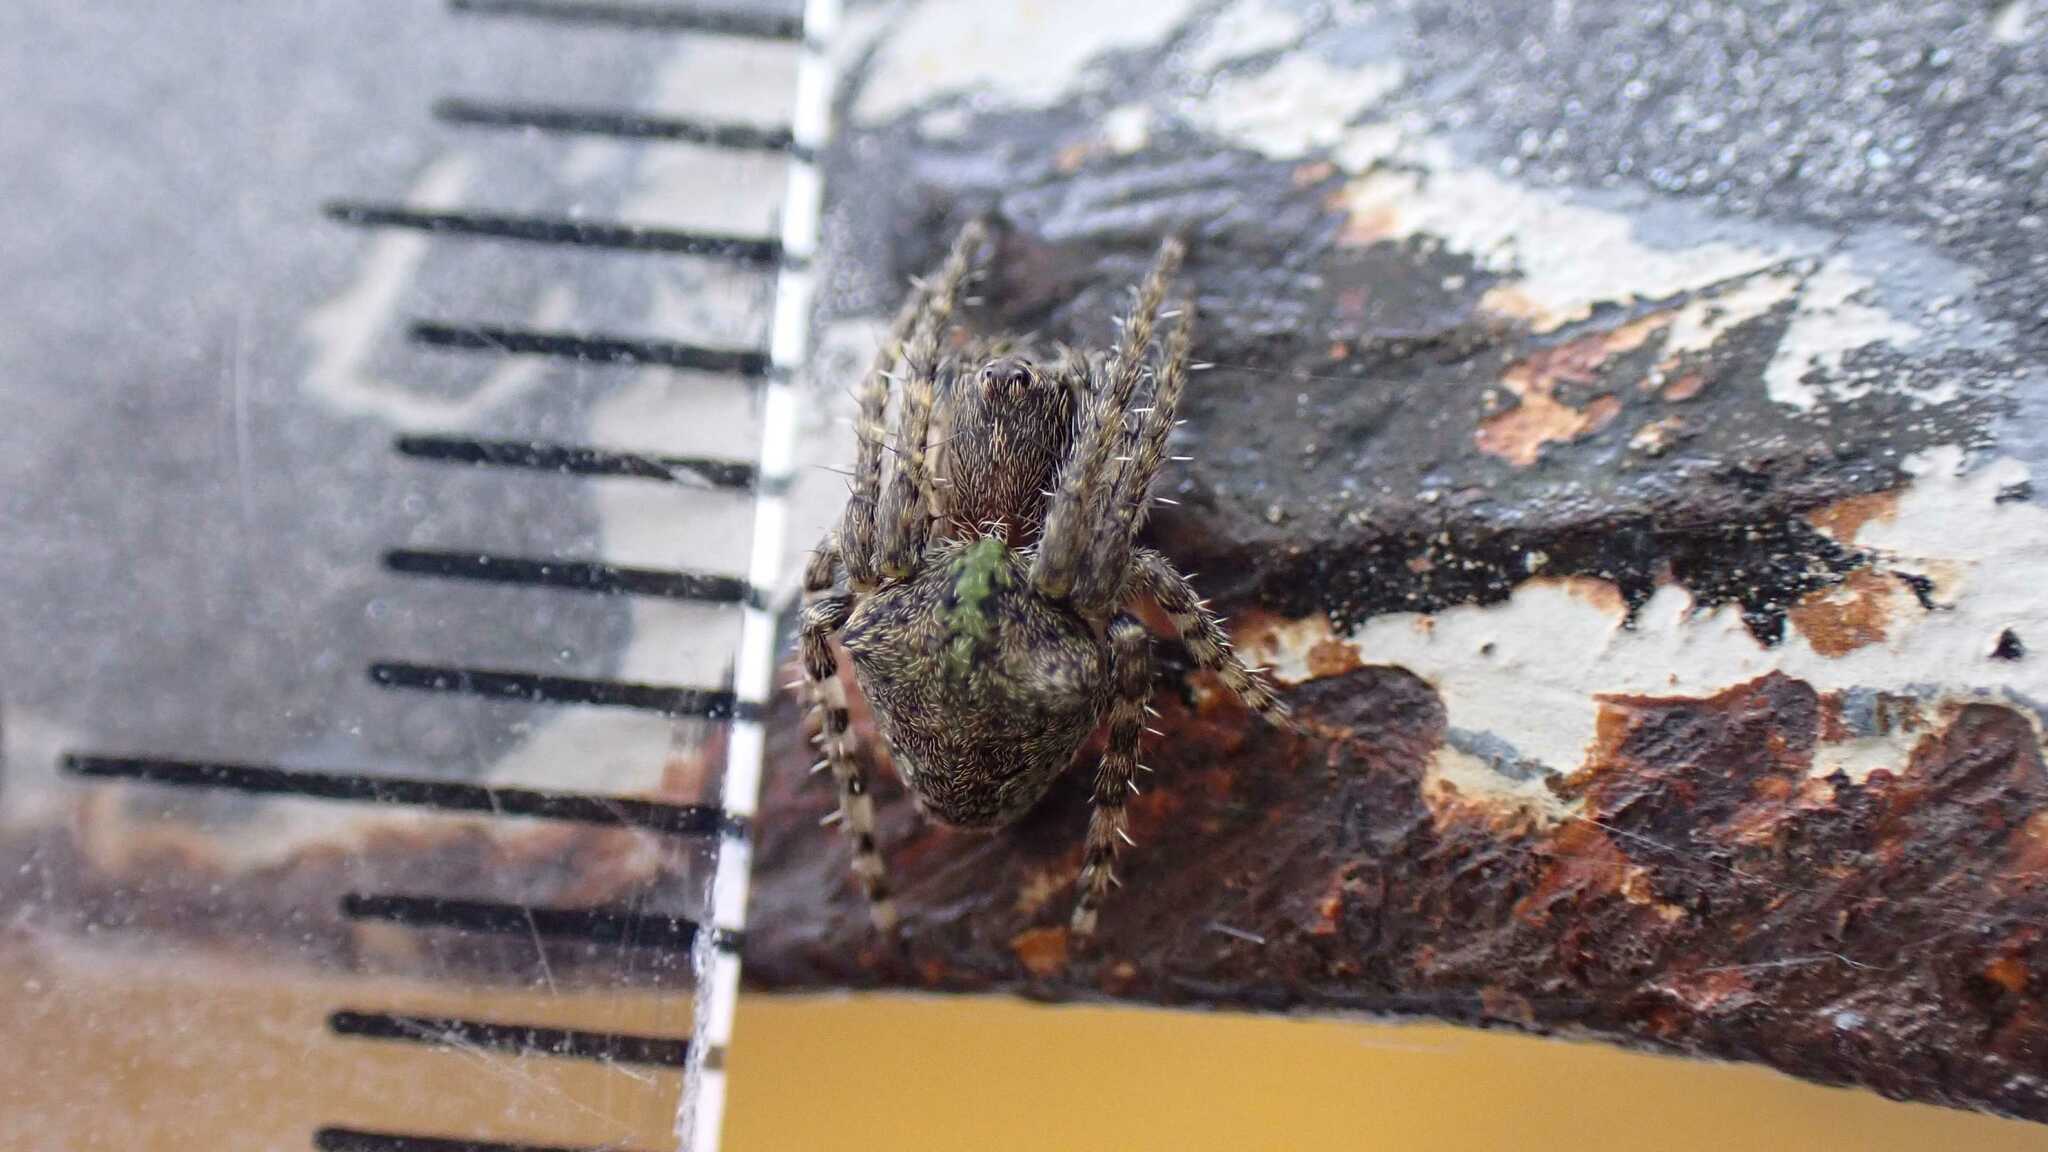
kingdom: Animalia
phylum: Arthropoda
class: Arachnida
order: Araneae
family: Araneidae
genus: Gibbaranea
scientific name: Gibbaranea gibbosa
